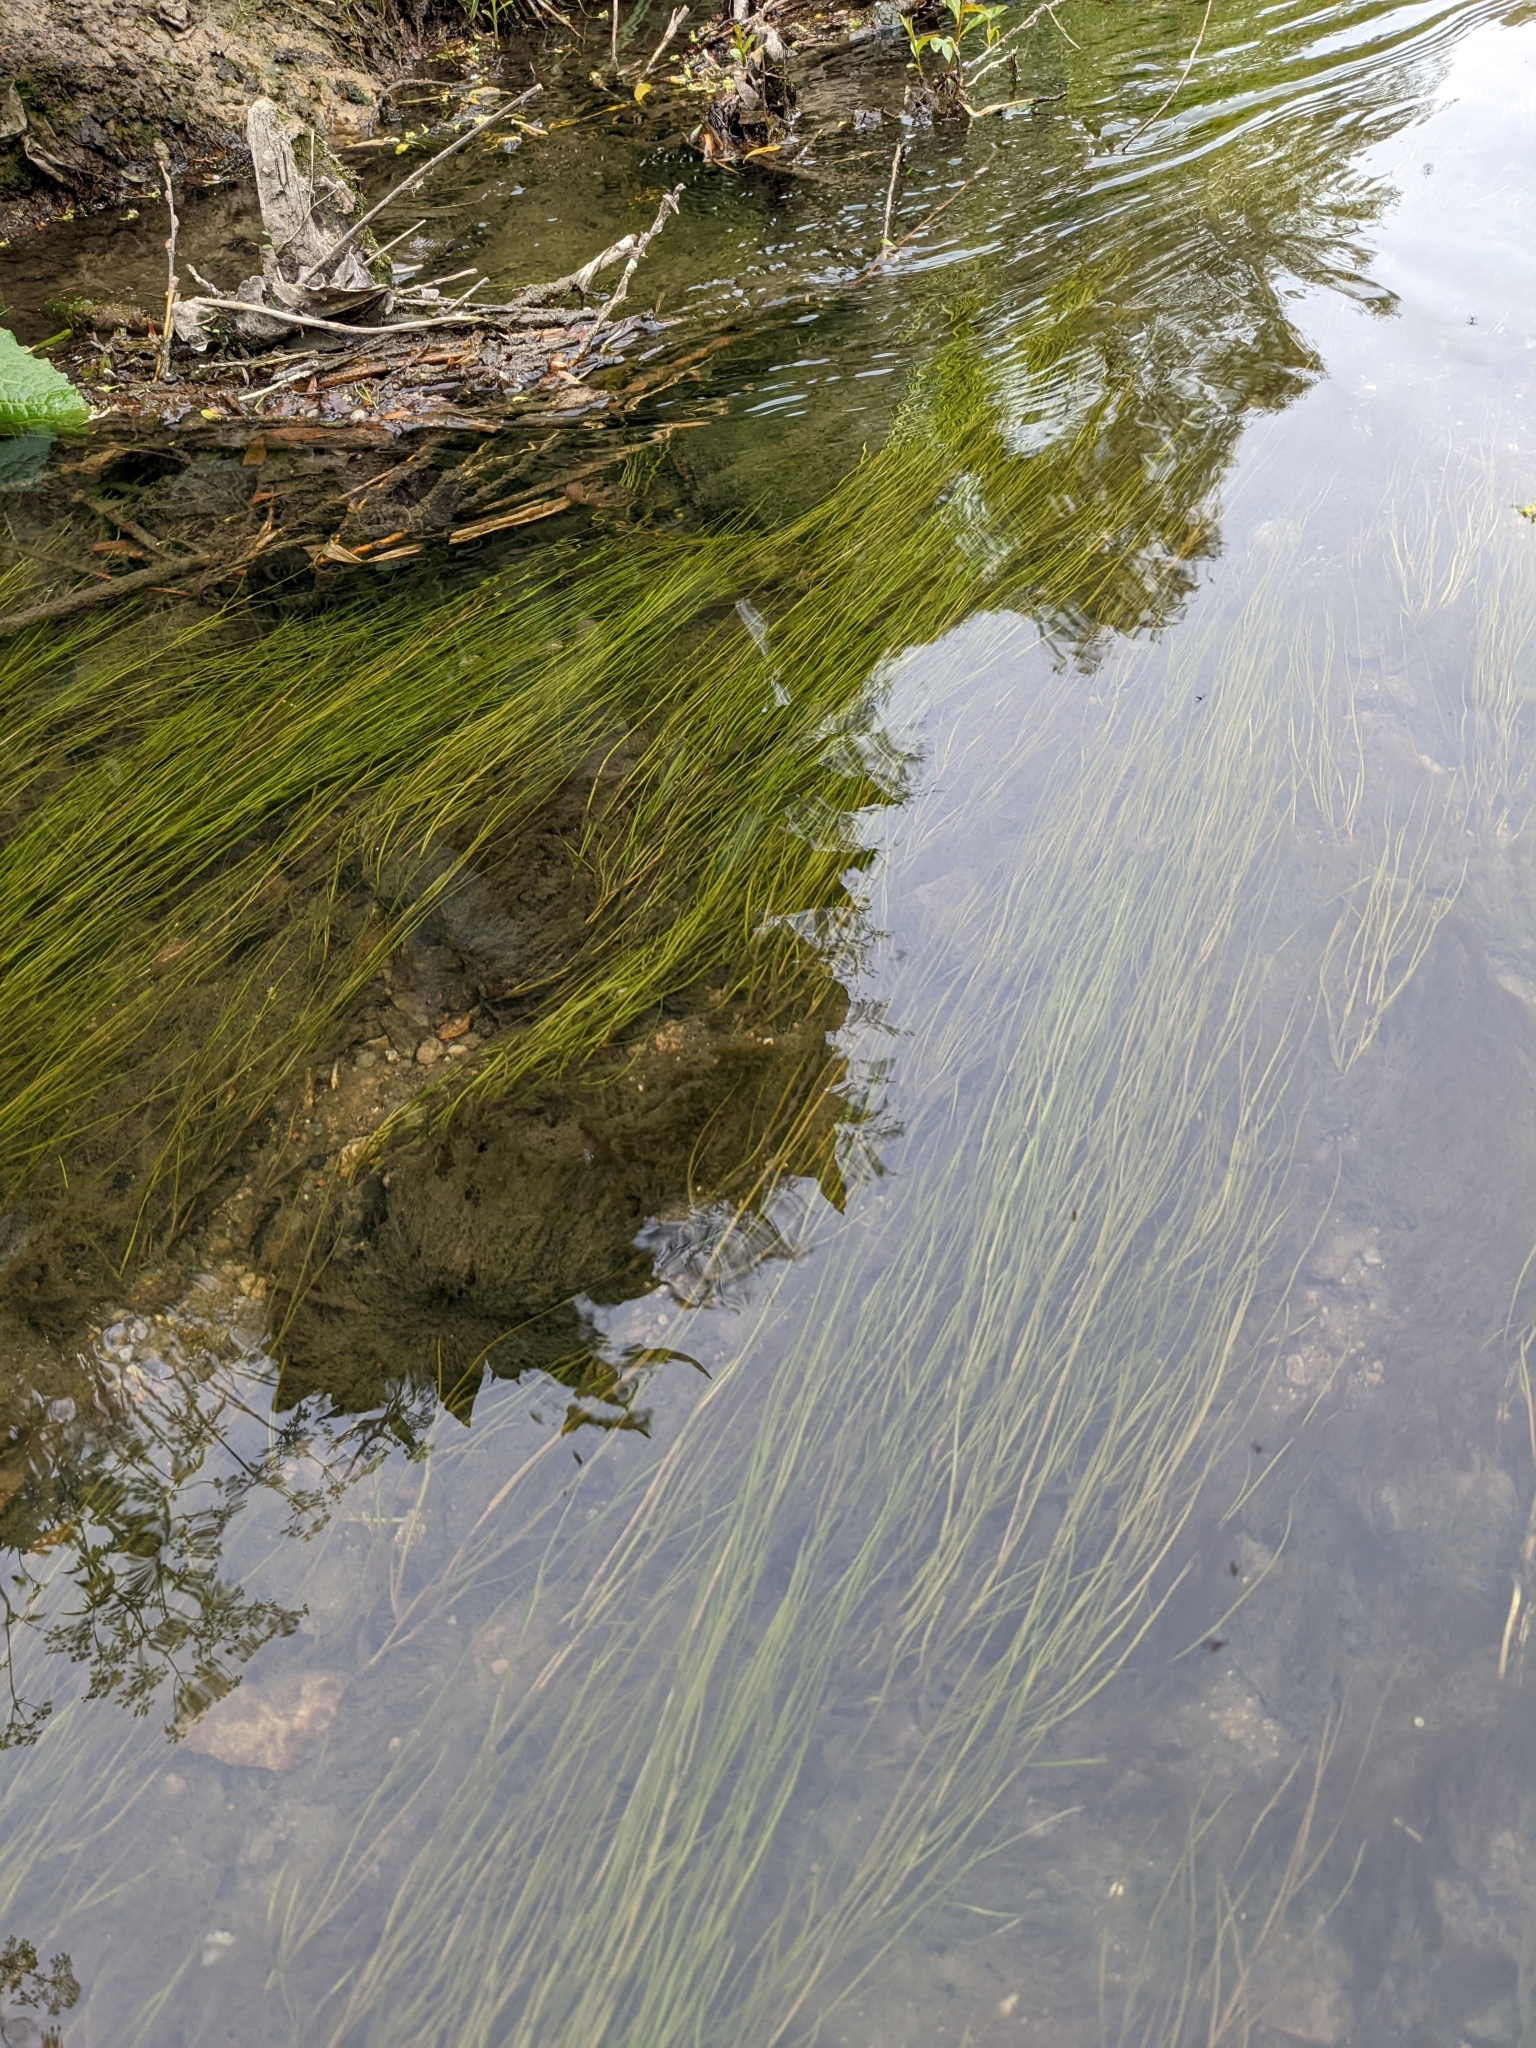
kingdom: Plantae
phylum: Tracheophyta
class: Liliopsida
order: Alismatales
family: Potamogetonaceae
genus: Stuckenia
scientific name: Stuckenia pectinata
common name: Sago pondweed
